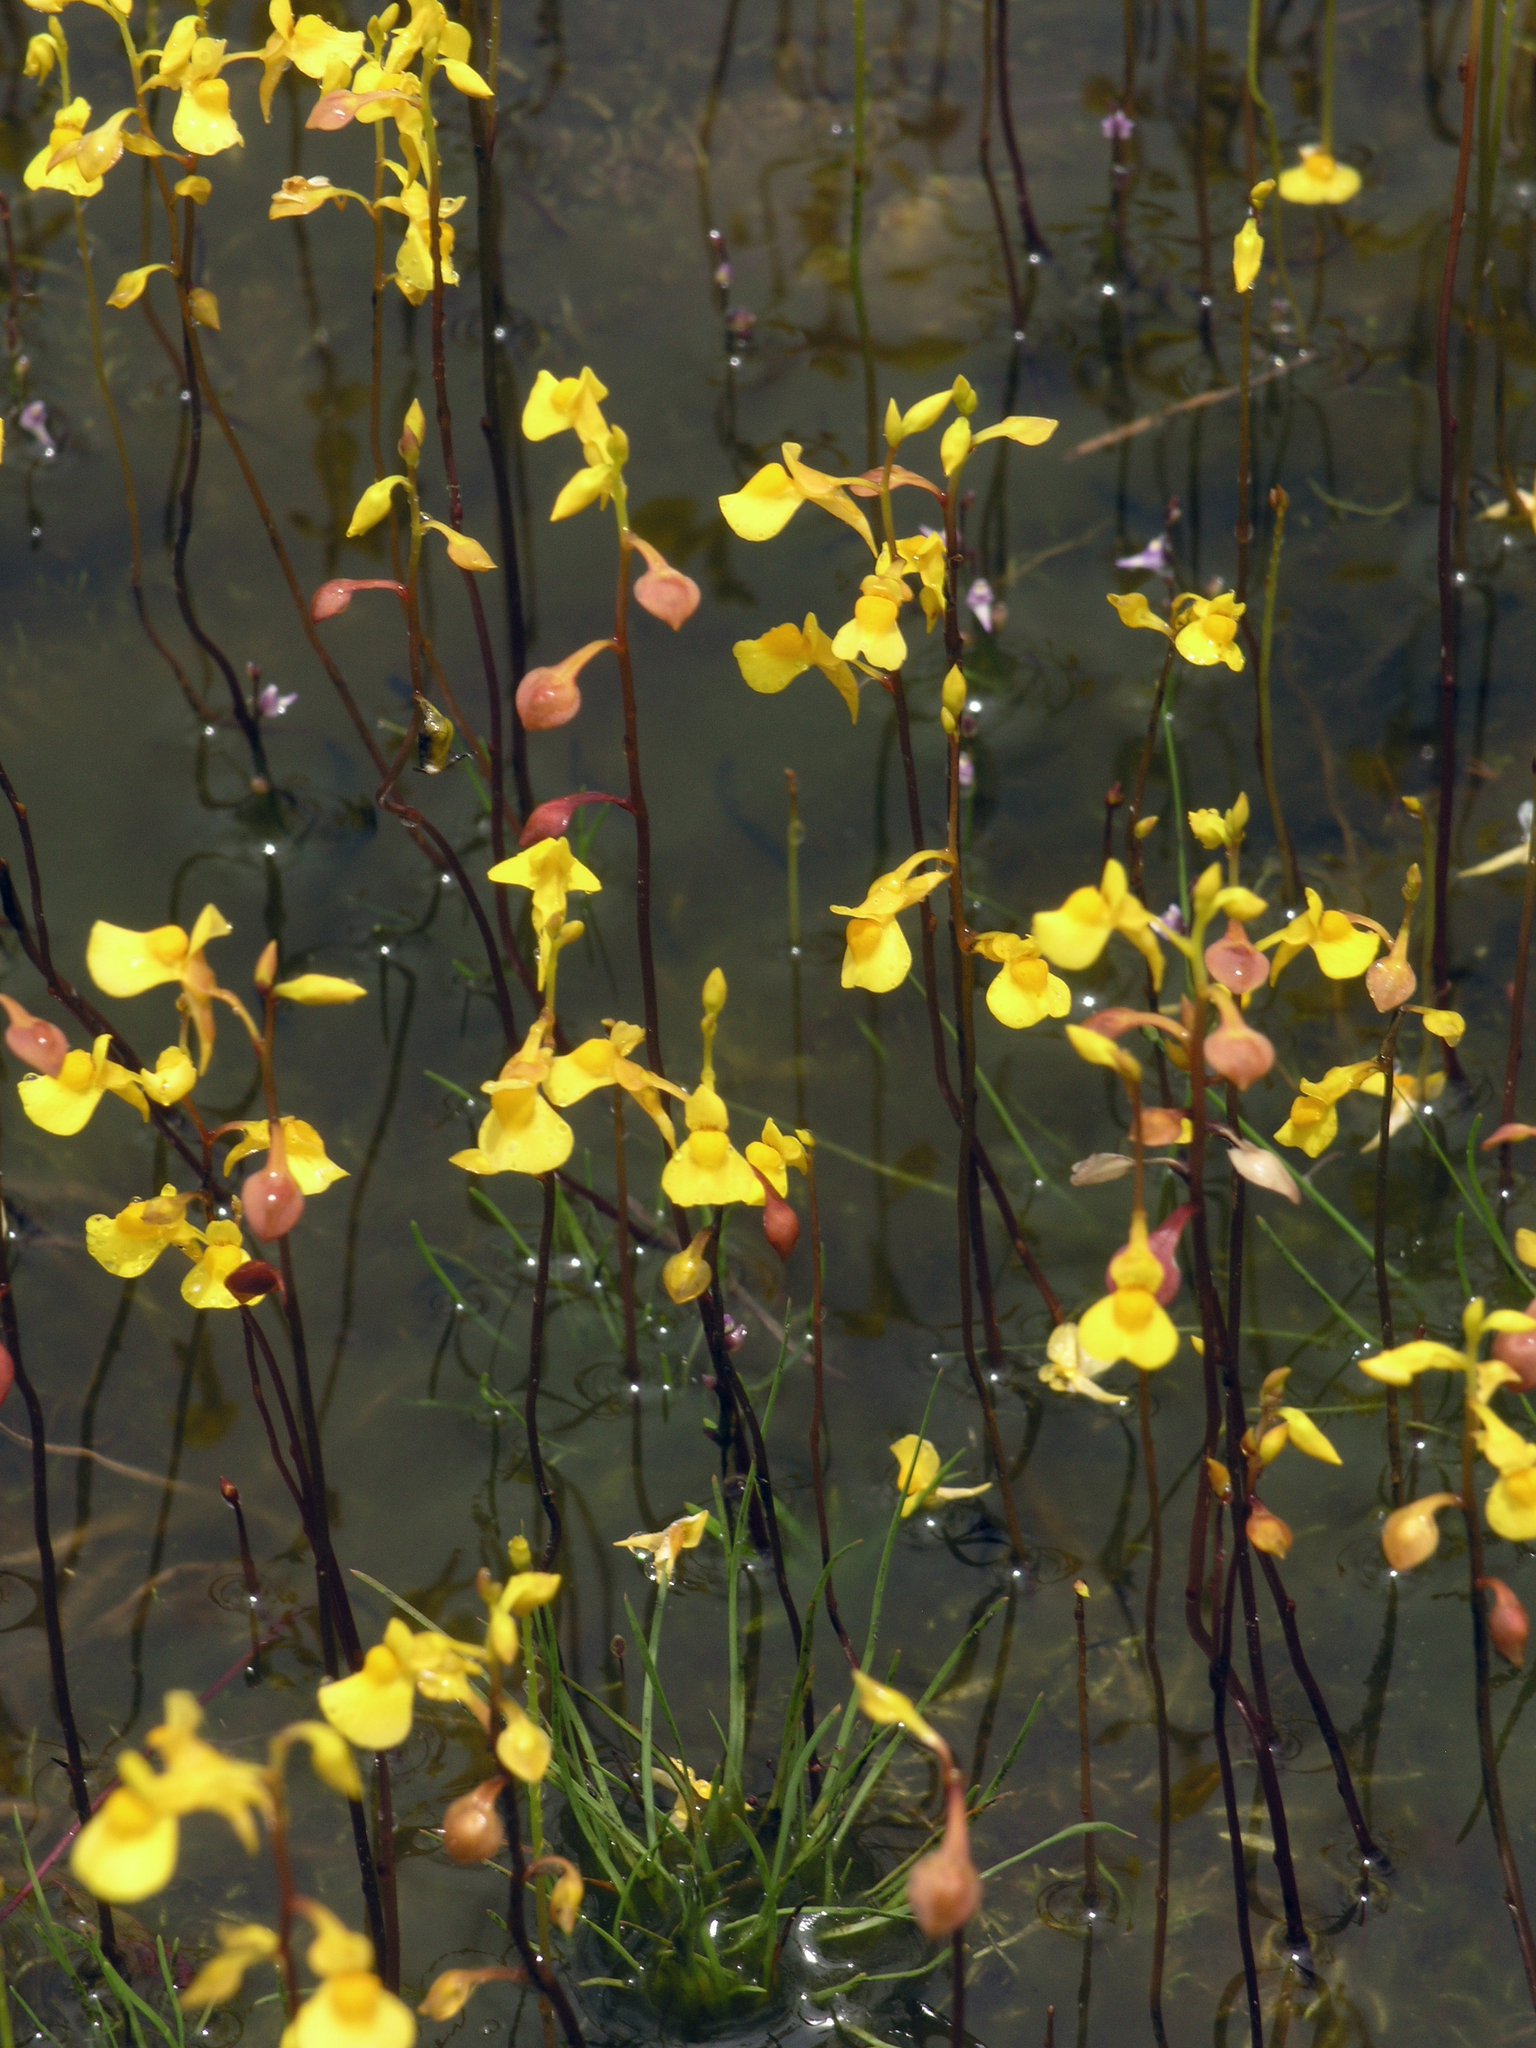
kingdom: Plantae
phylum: Tracheophyta
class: Magnoliopsida
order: Lamiales
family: Lentibulariaceae
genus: Utricularia
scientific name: Utricularia odorata
